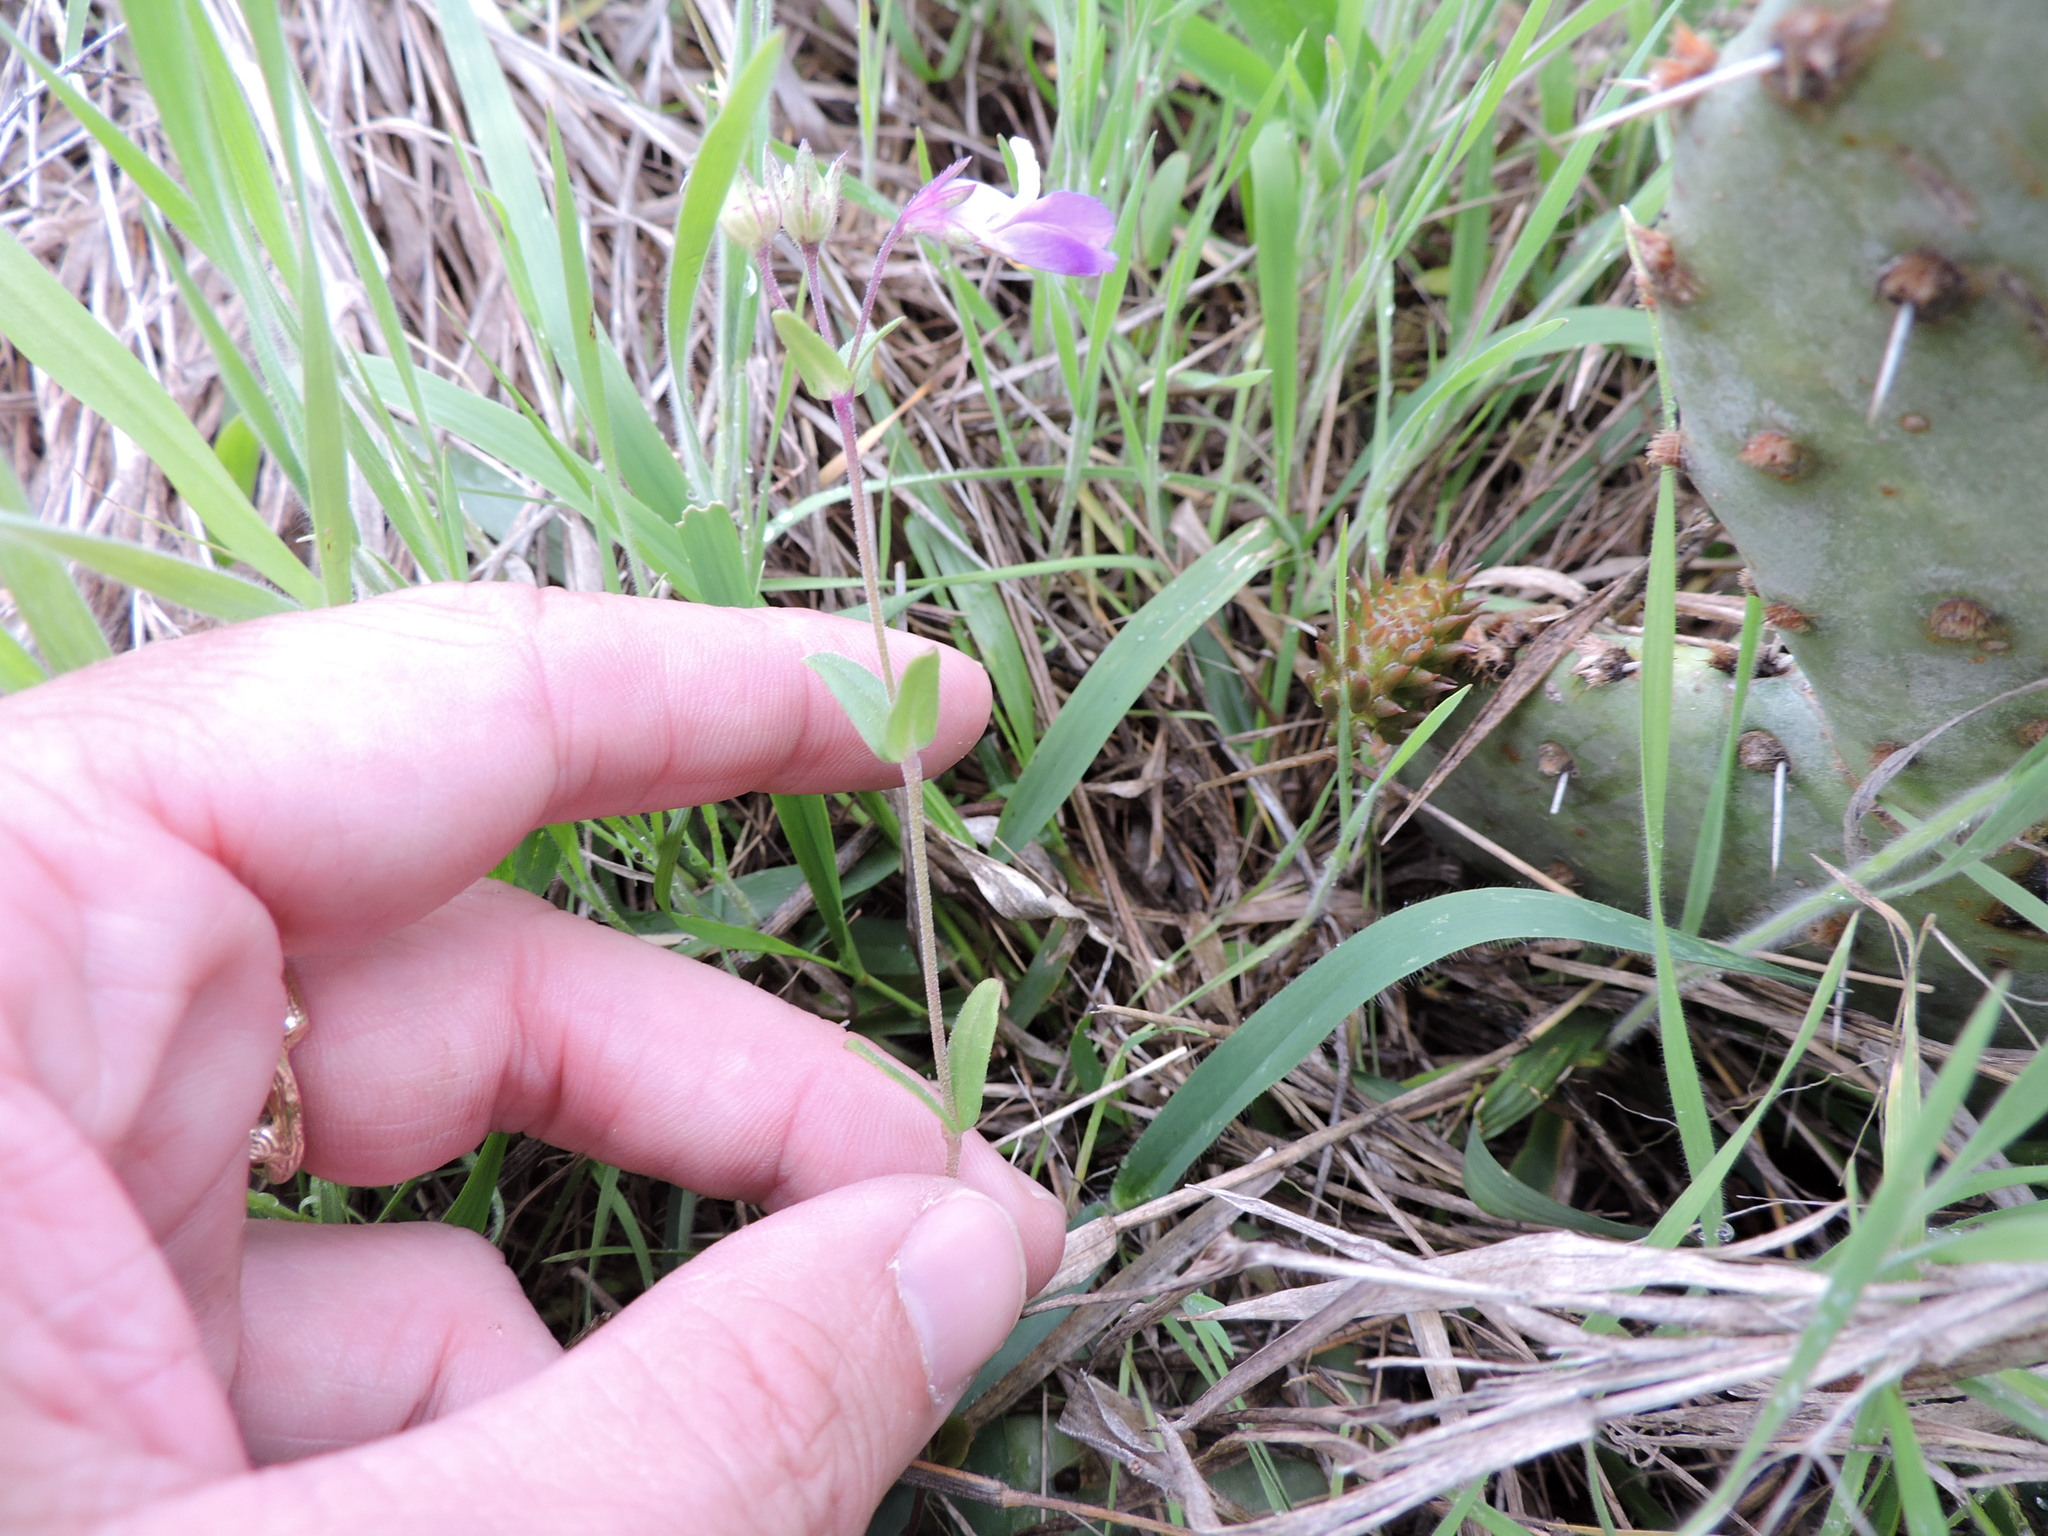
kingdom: Plantae
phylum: Tracheophyta
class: Magnoliopsida
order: Lamiales
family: Plantaginaceae
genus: Collinsia
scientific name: Collinsia violacea
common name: Violet collinsia
